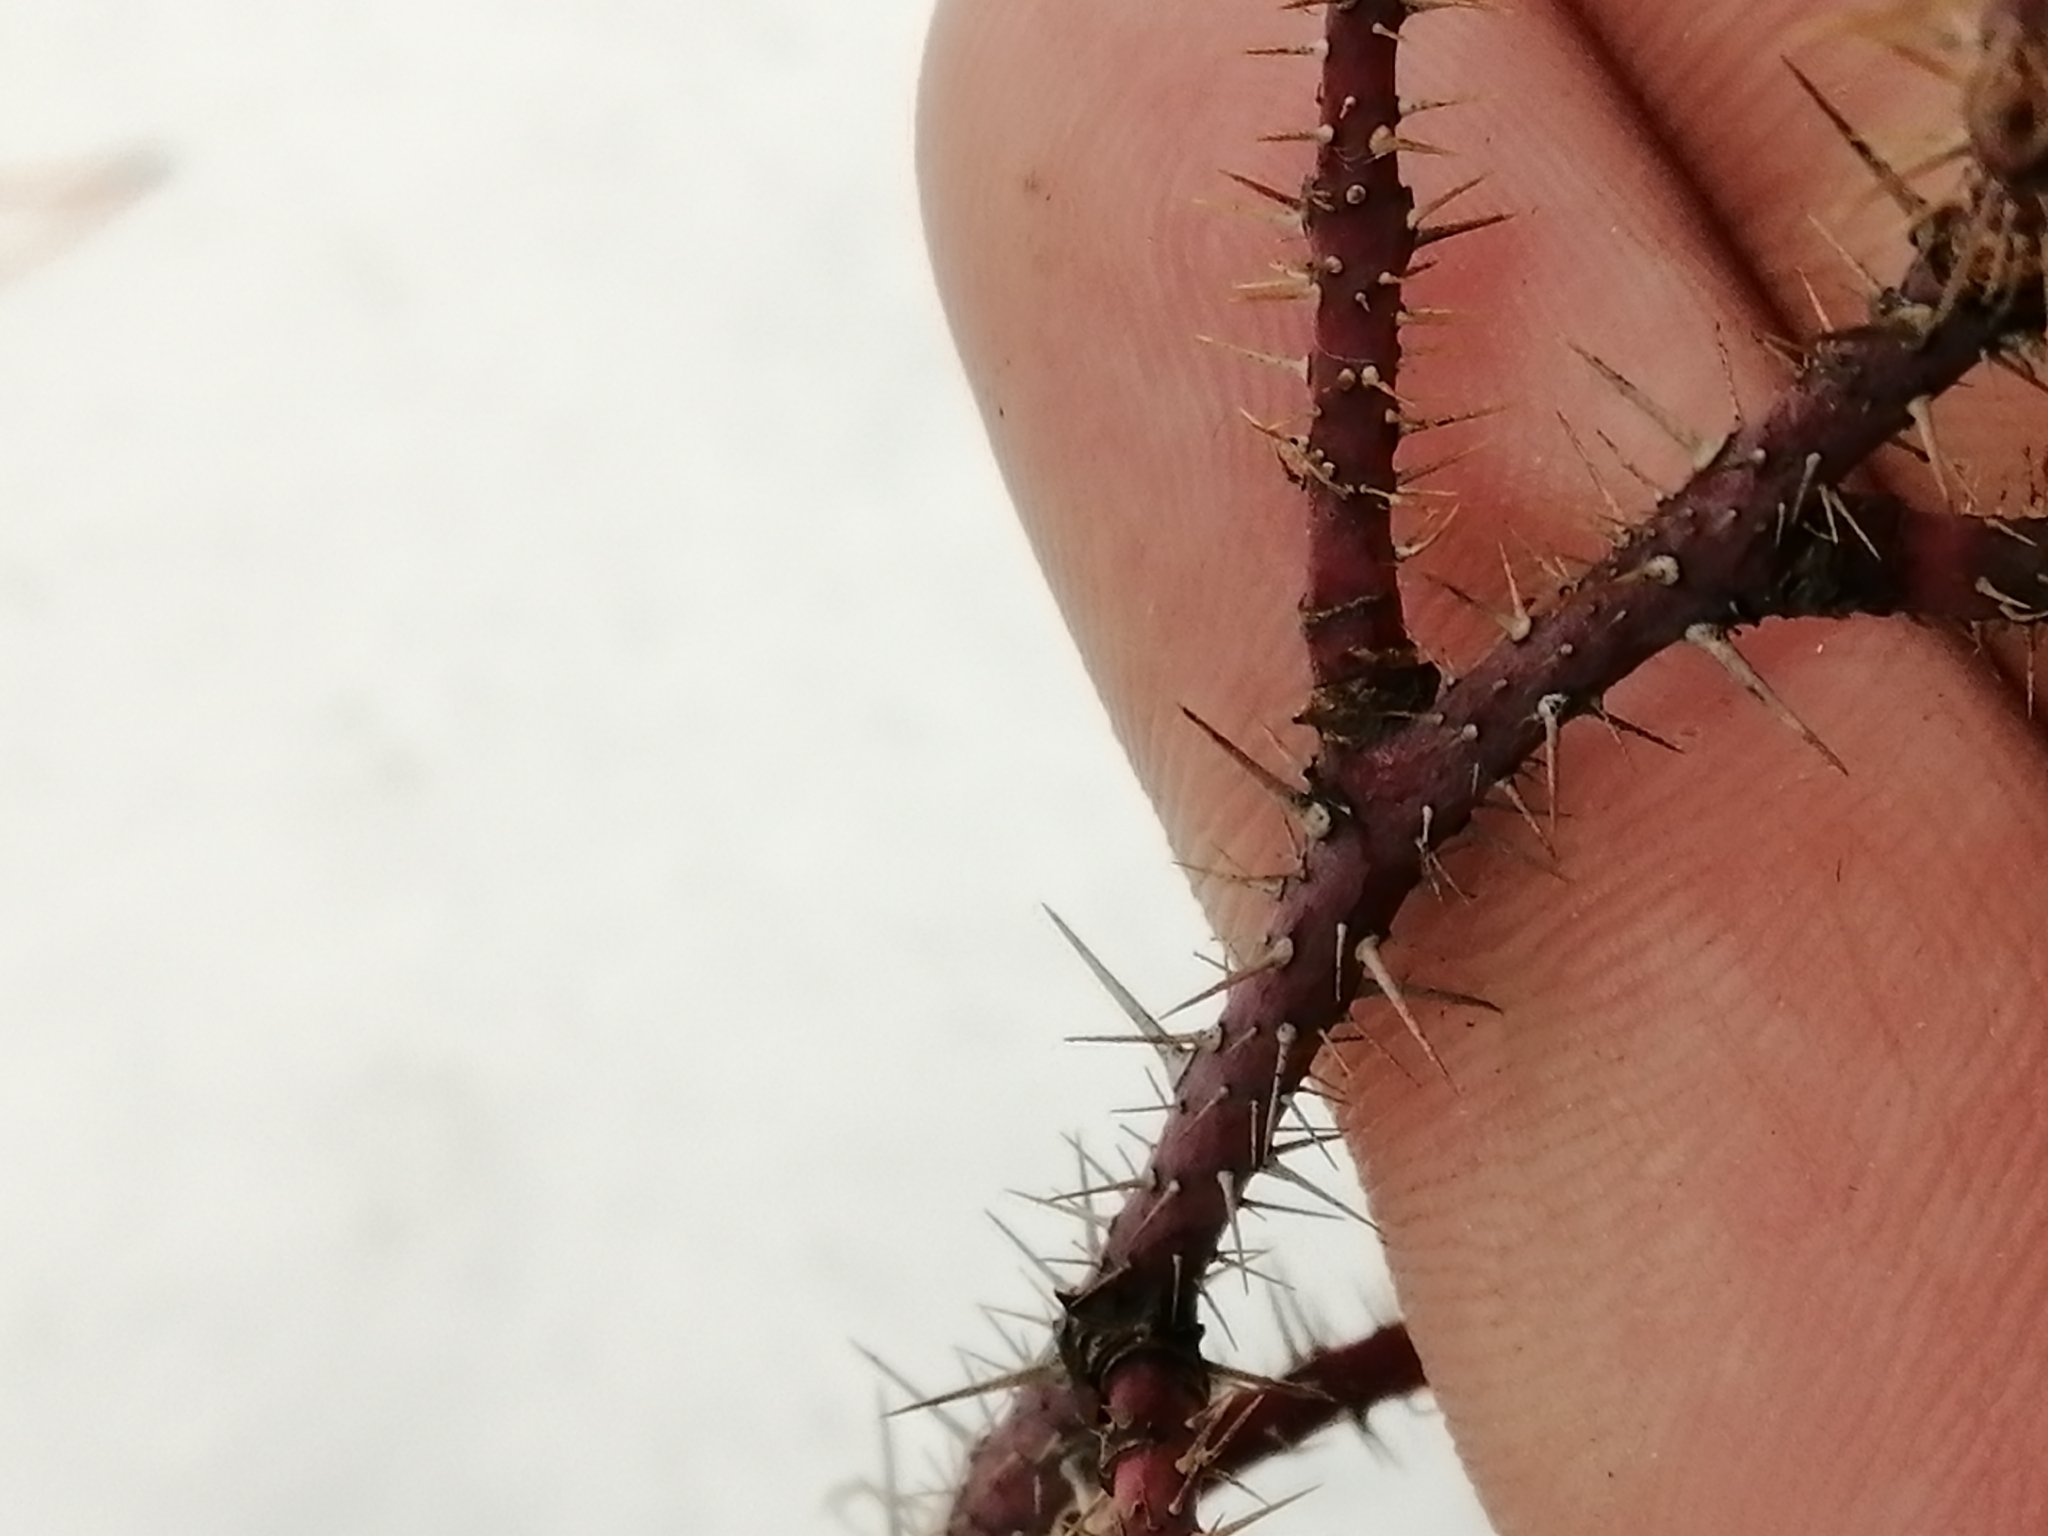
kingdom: Plantae
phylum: Tracheophyta
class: Magnoliopsida
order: Rosales
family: Rosaceae
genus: Rosa
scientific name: Rosa acicularis
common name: Prickly rose
